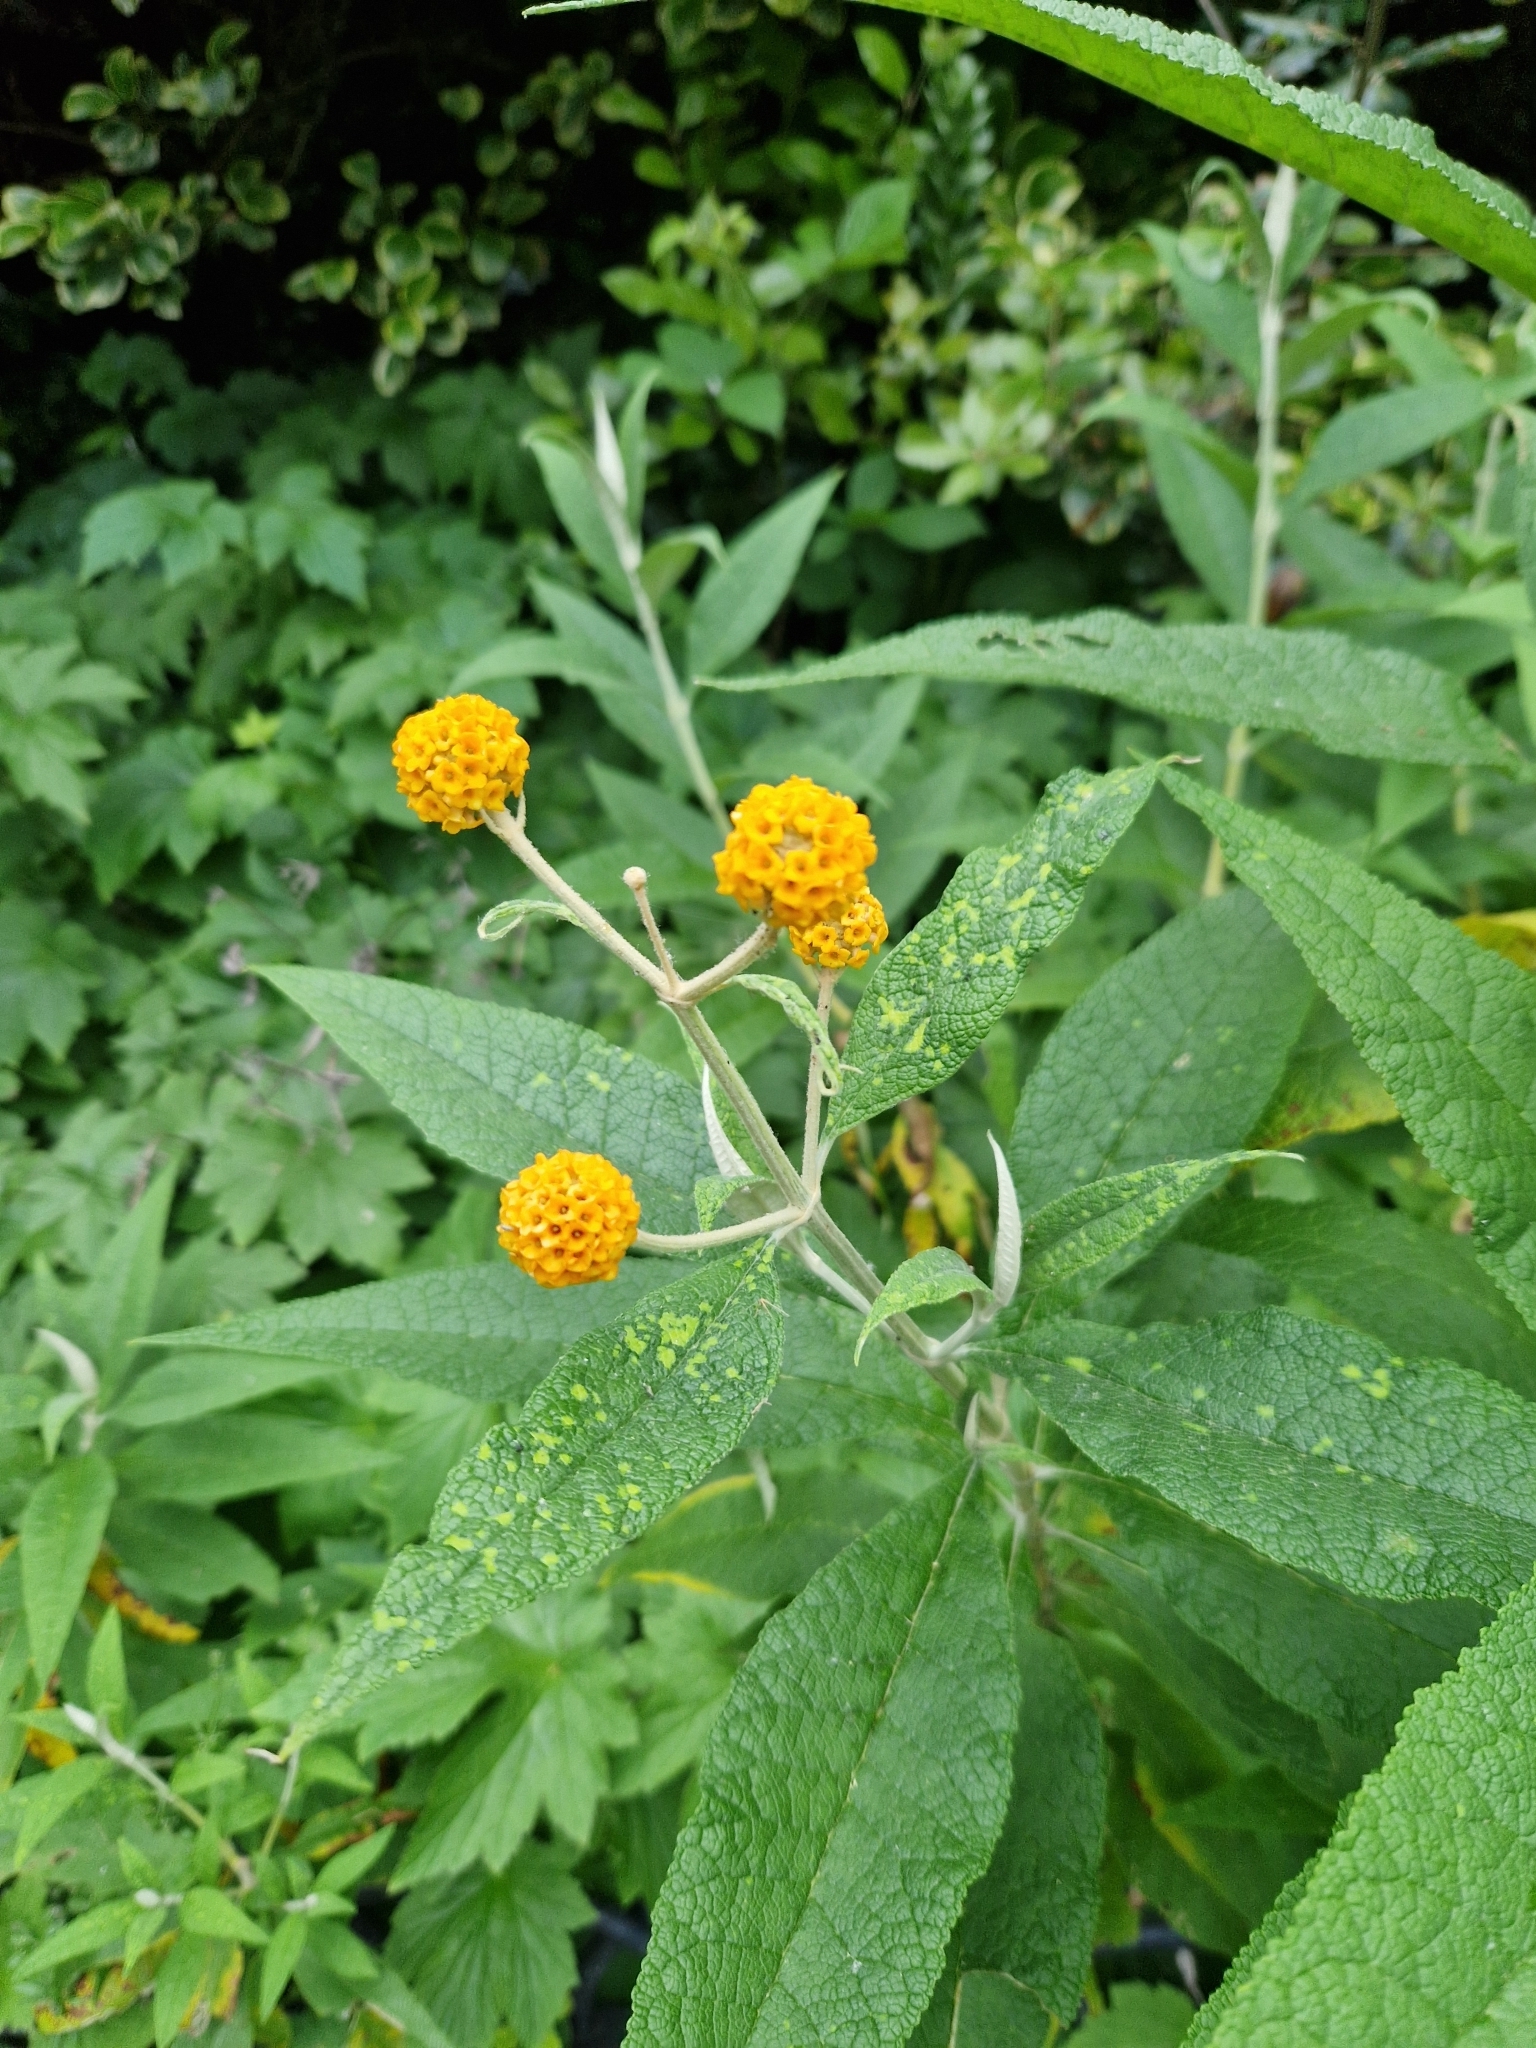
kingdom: Plantae
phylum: Tracheophyta
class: Magnoliopsida
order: Lamiales
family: Scrophulariaceae
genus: Buddleja
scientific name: Buddleja globosa
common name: Orange-ball-tree
